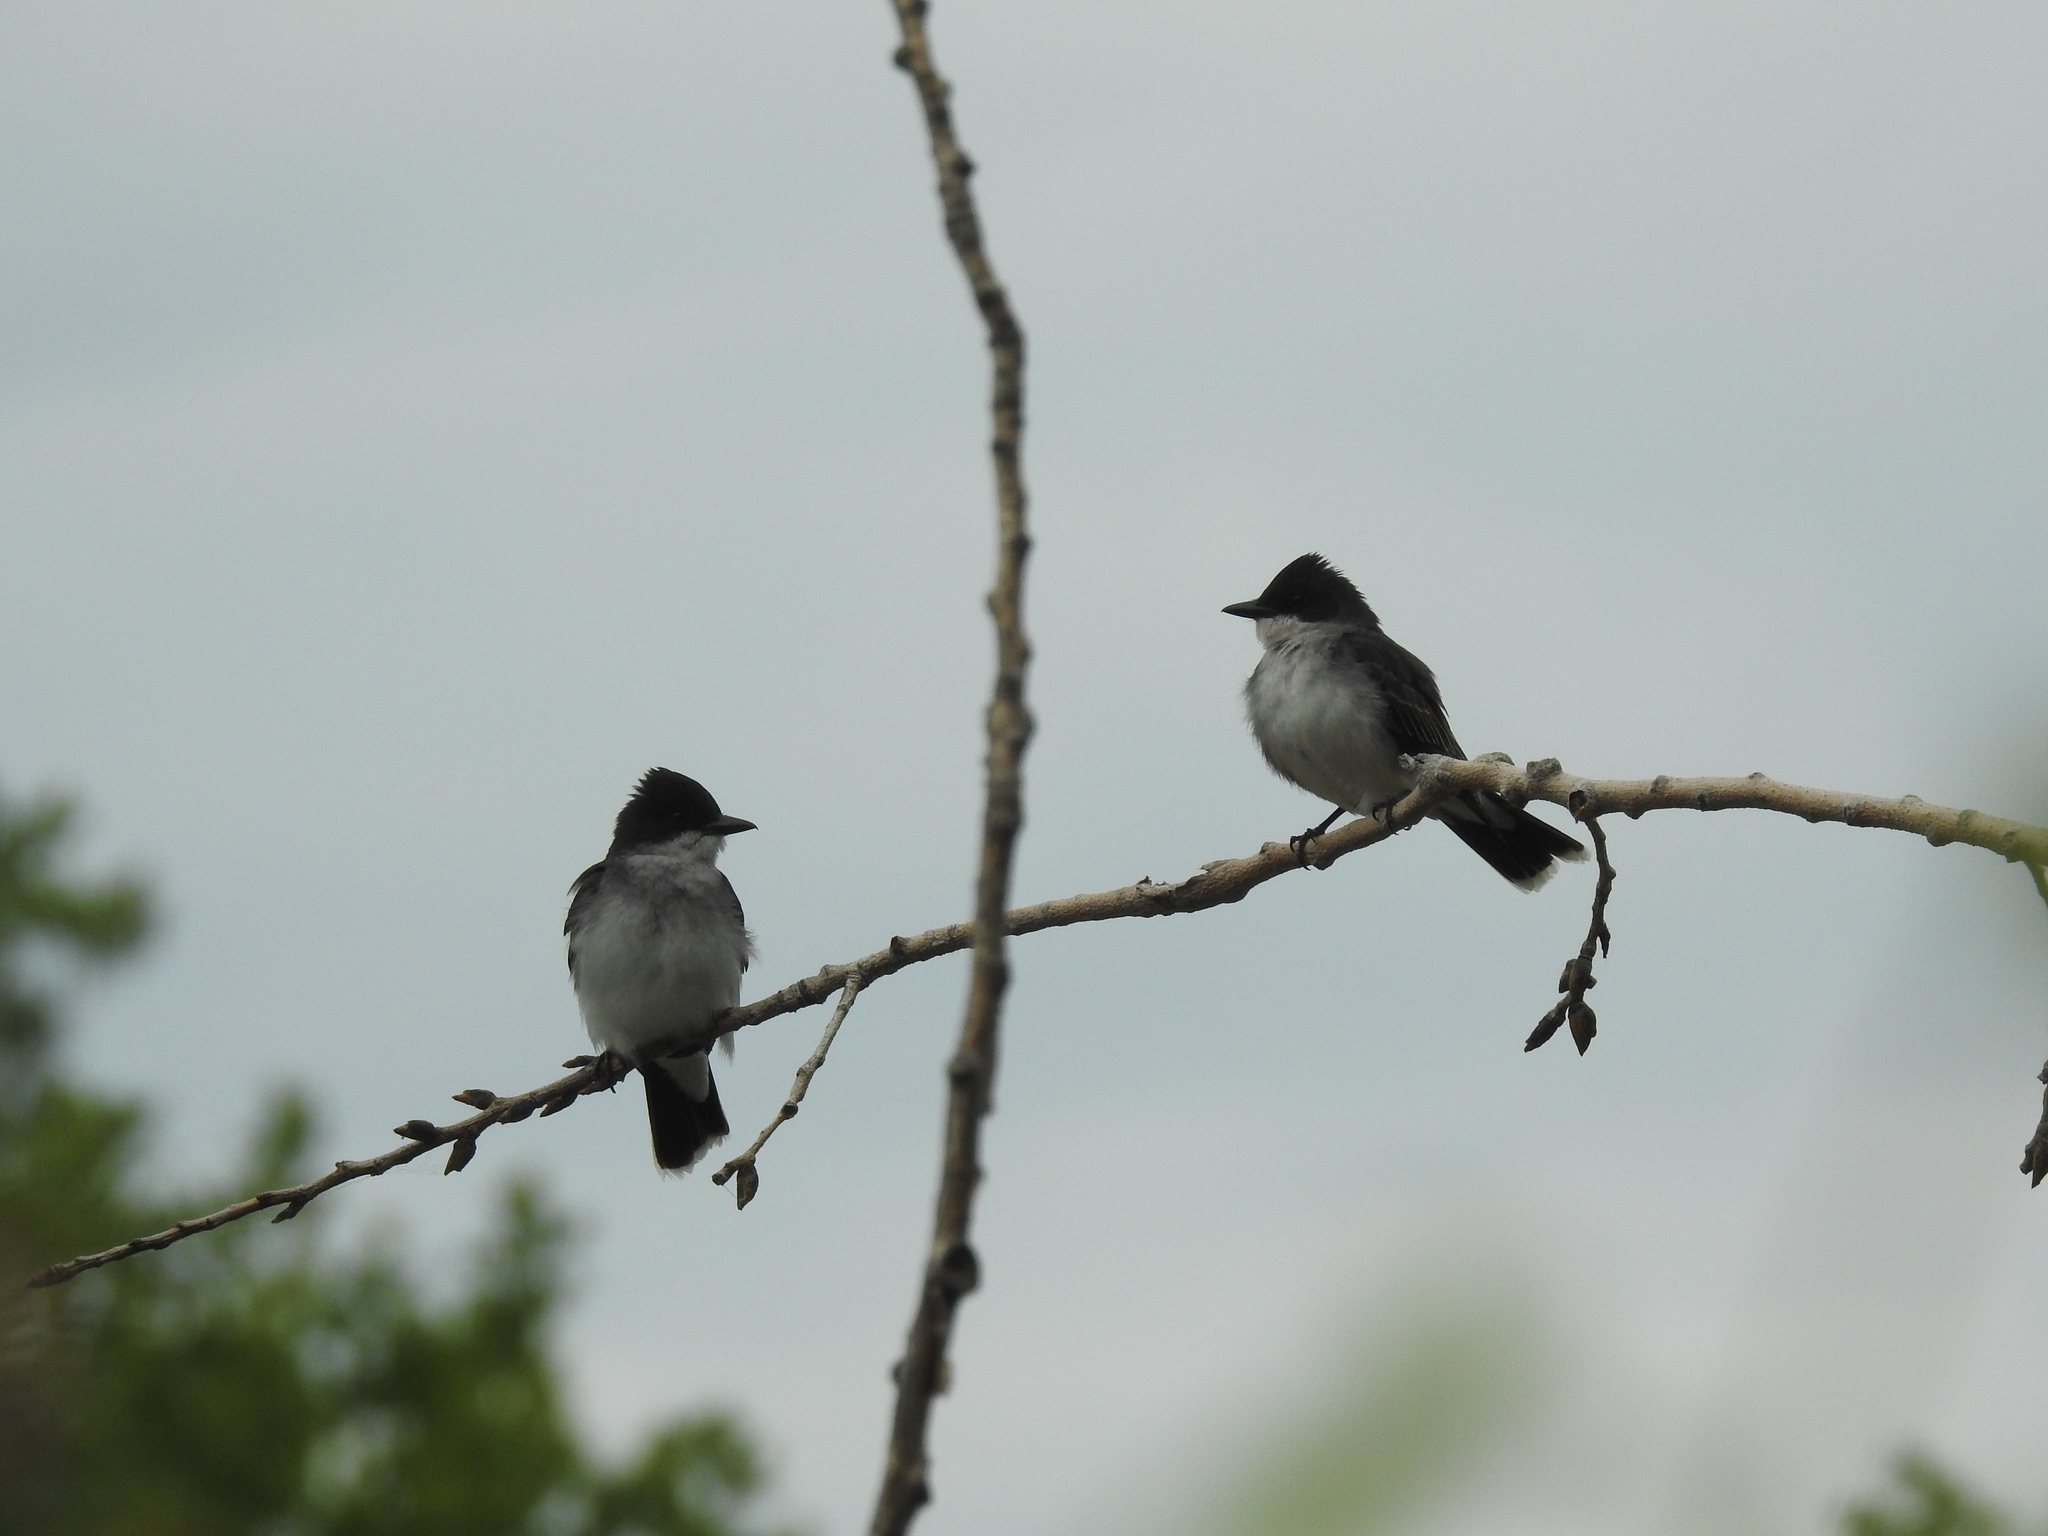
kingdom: Animalia
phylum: Chordata
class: Aves
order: Passeriformes
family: Tyrannidae
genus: Tyrannus
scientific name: Tyrannus tyrannus
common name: Eastern kingbird
